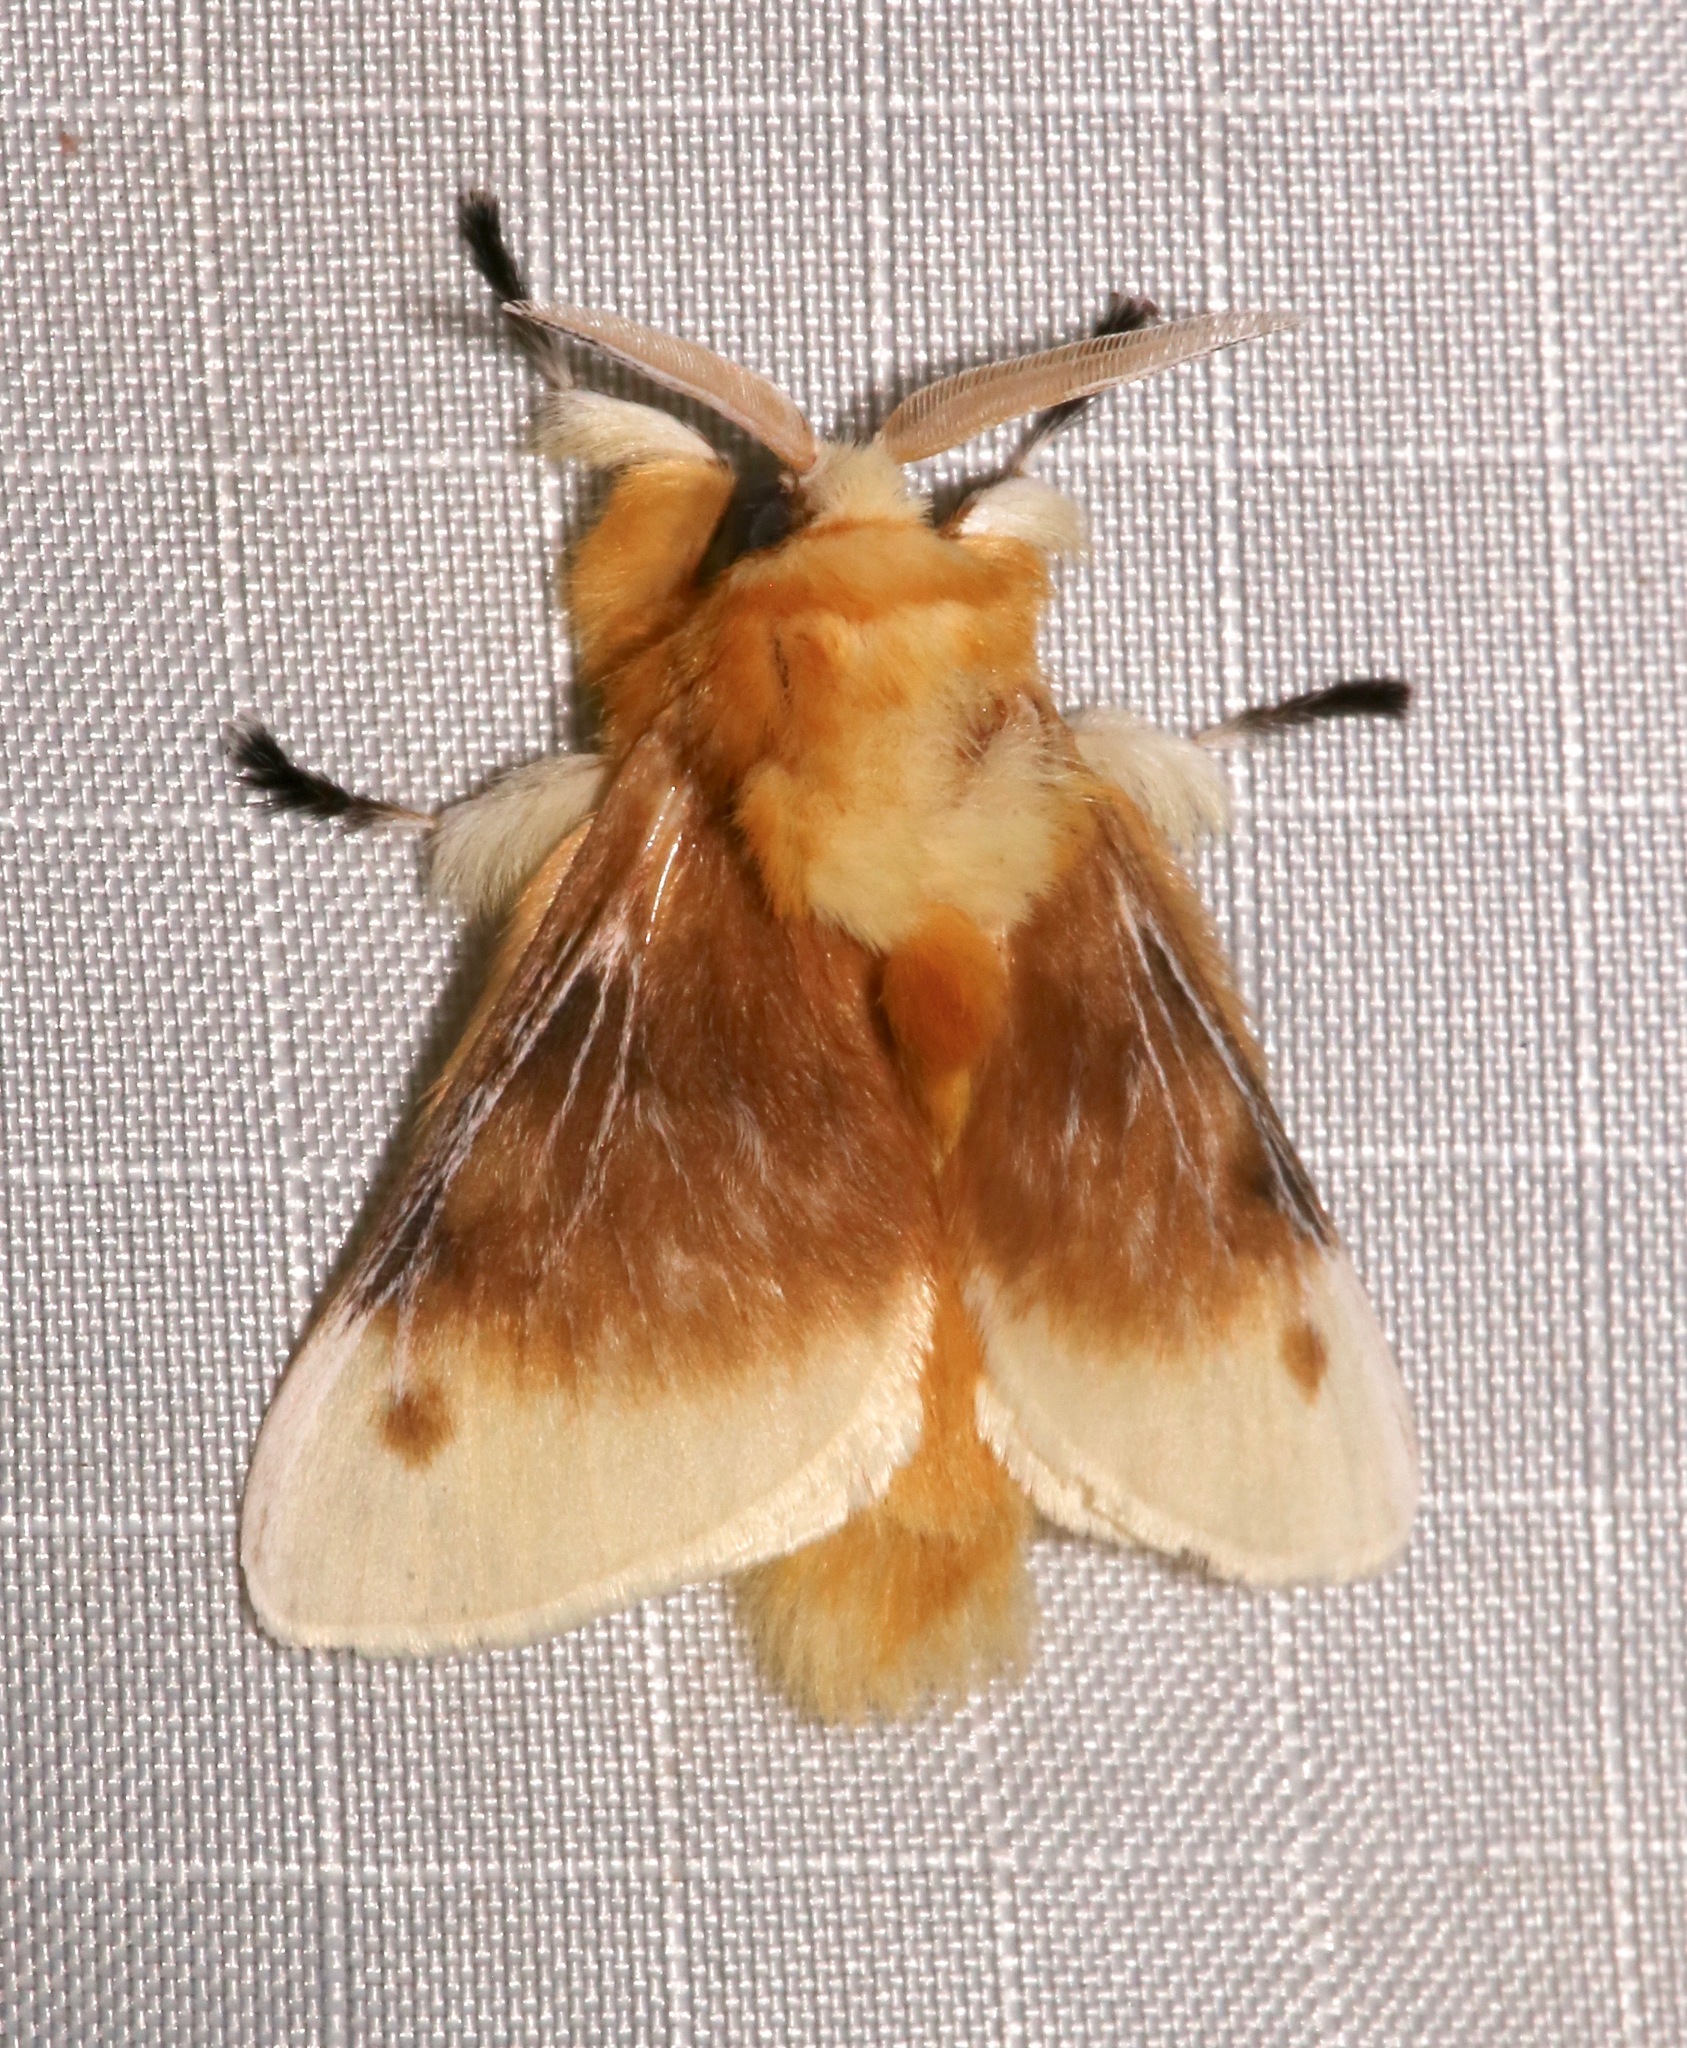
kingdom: Animalia
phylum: Arthropoda
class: Insecta
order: Lepidoptera
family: Megalopygidae
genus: Megalopyge
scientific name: Megalopyge opercularis
